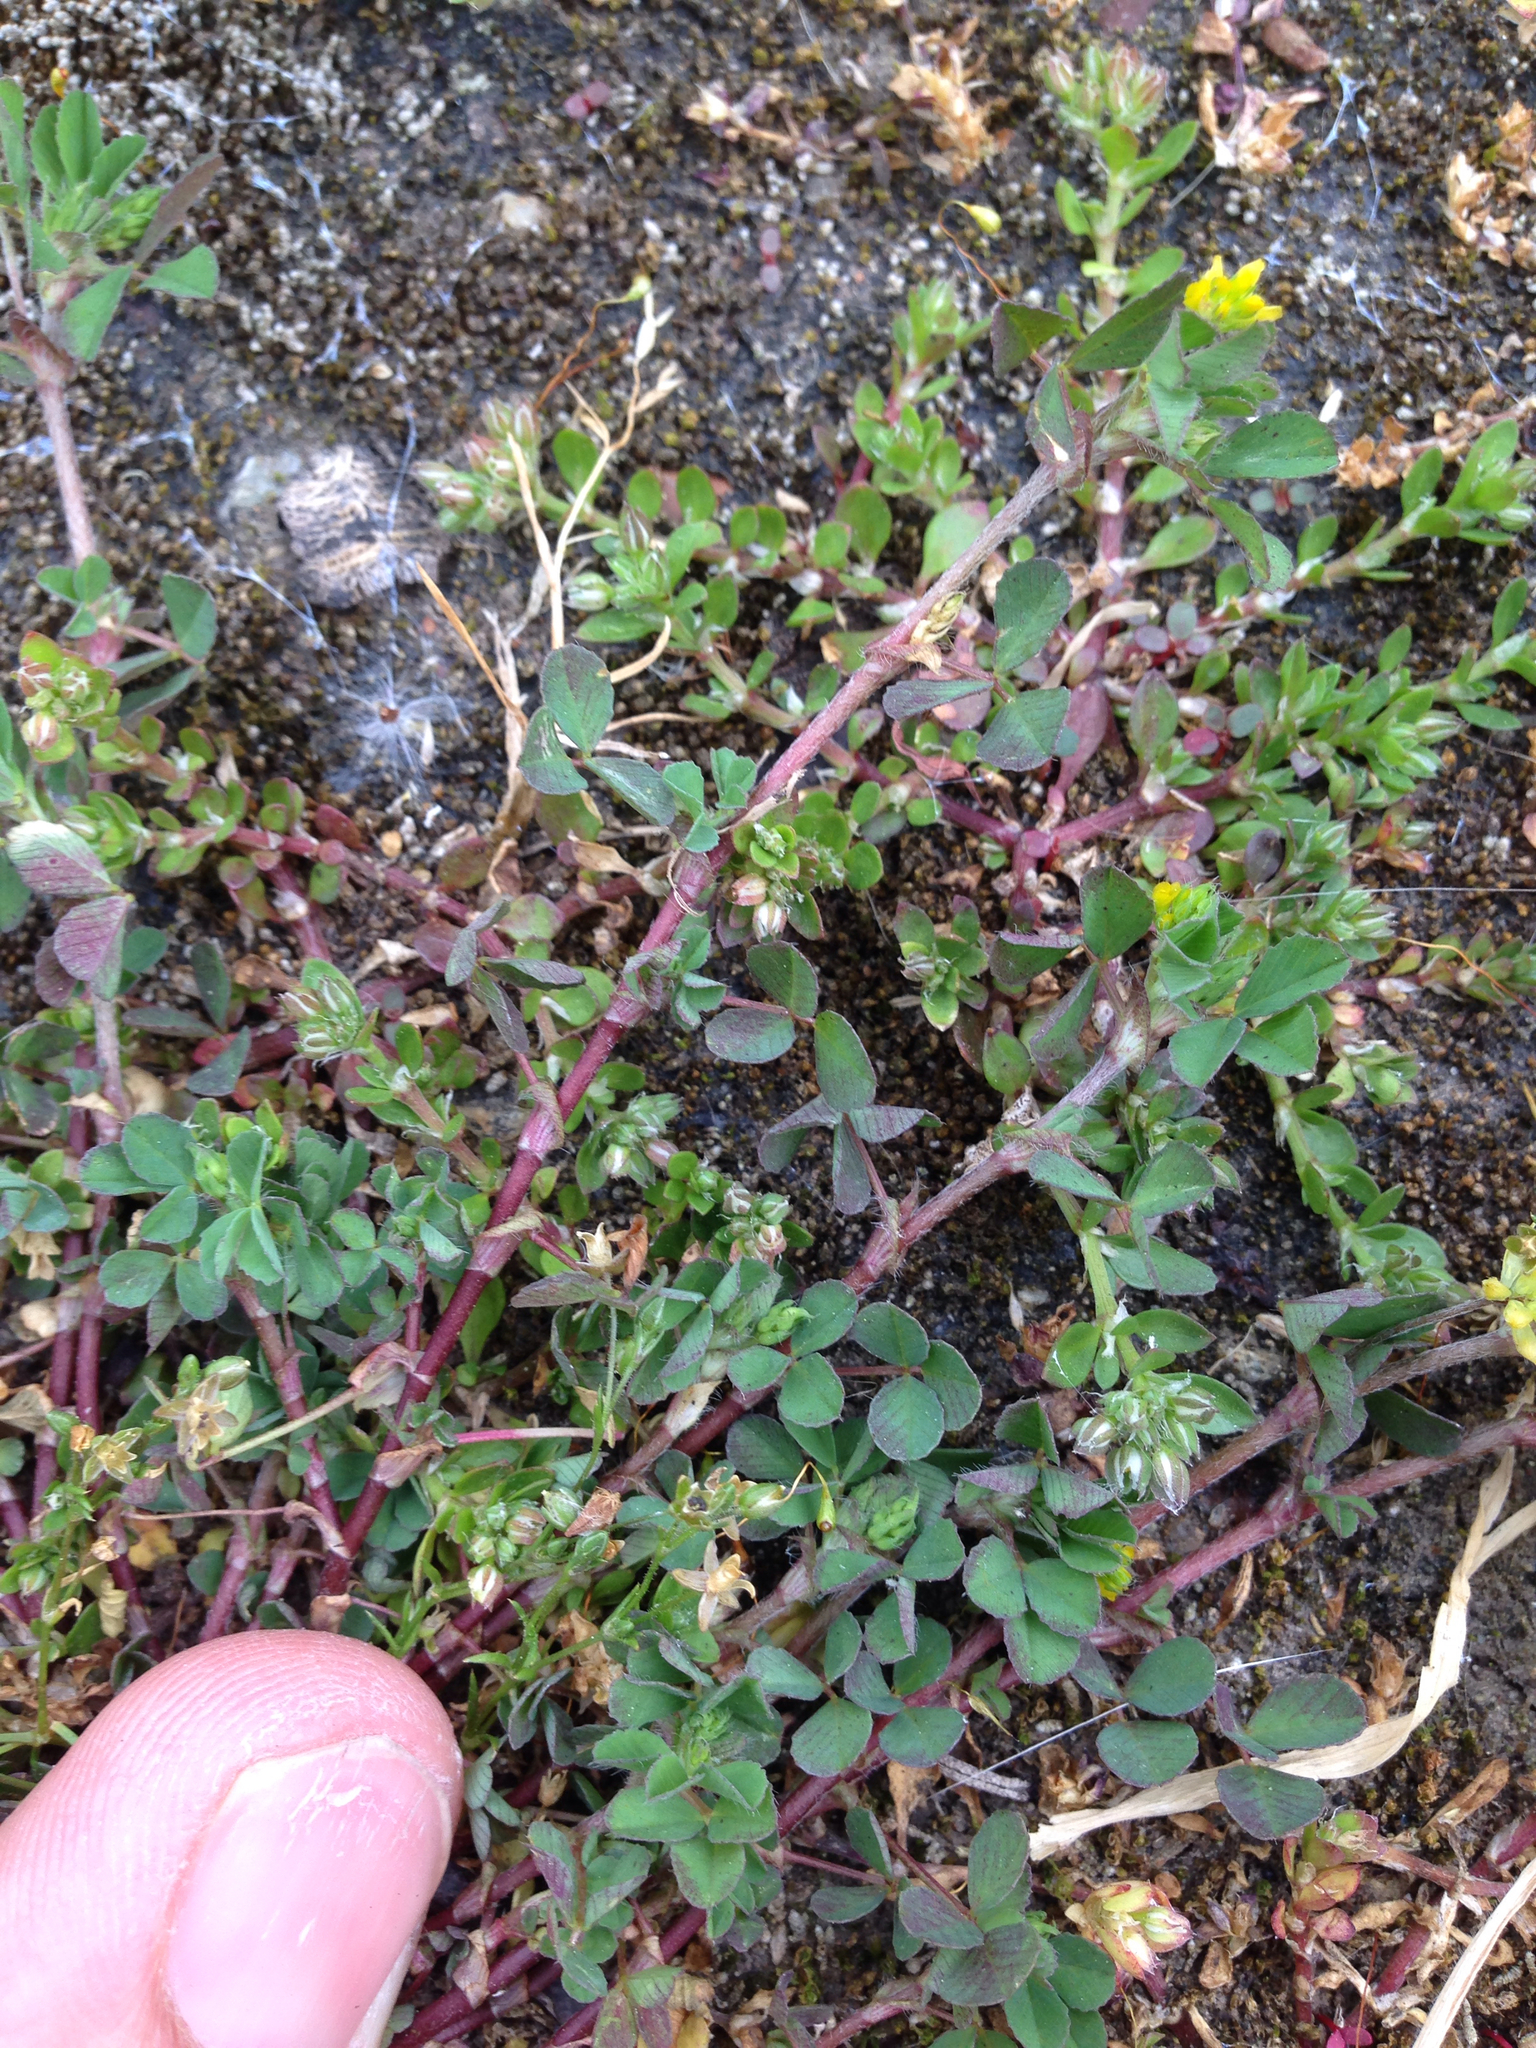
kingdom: Plantae
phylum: Tracheophyta
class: Magnoliopsida
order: Fabales
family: Fabaceae
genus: Trifolium
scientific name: Trifolium dubium
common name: Suckling clover
